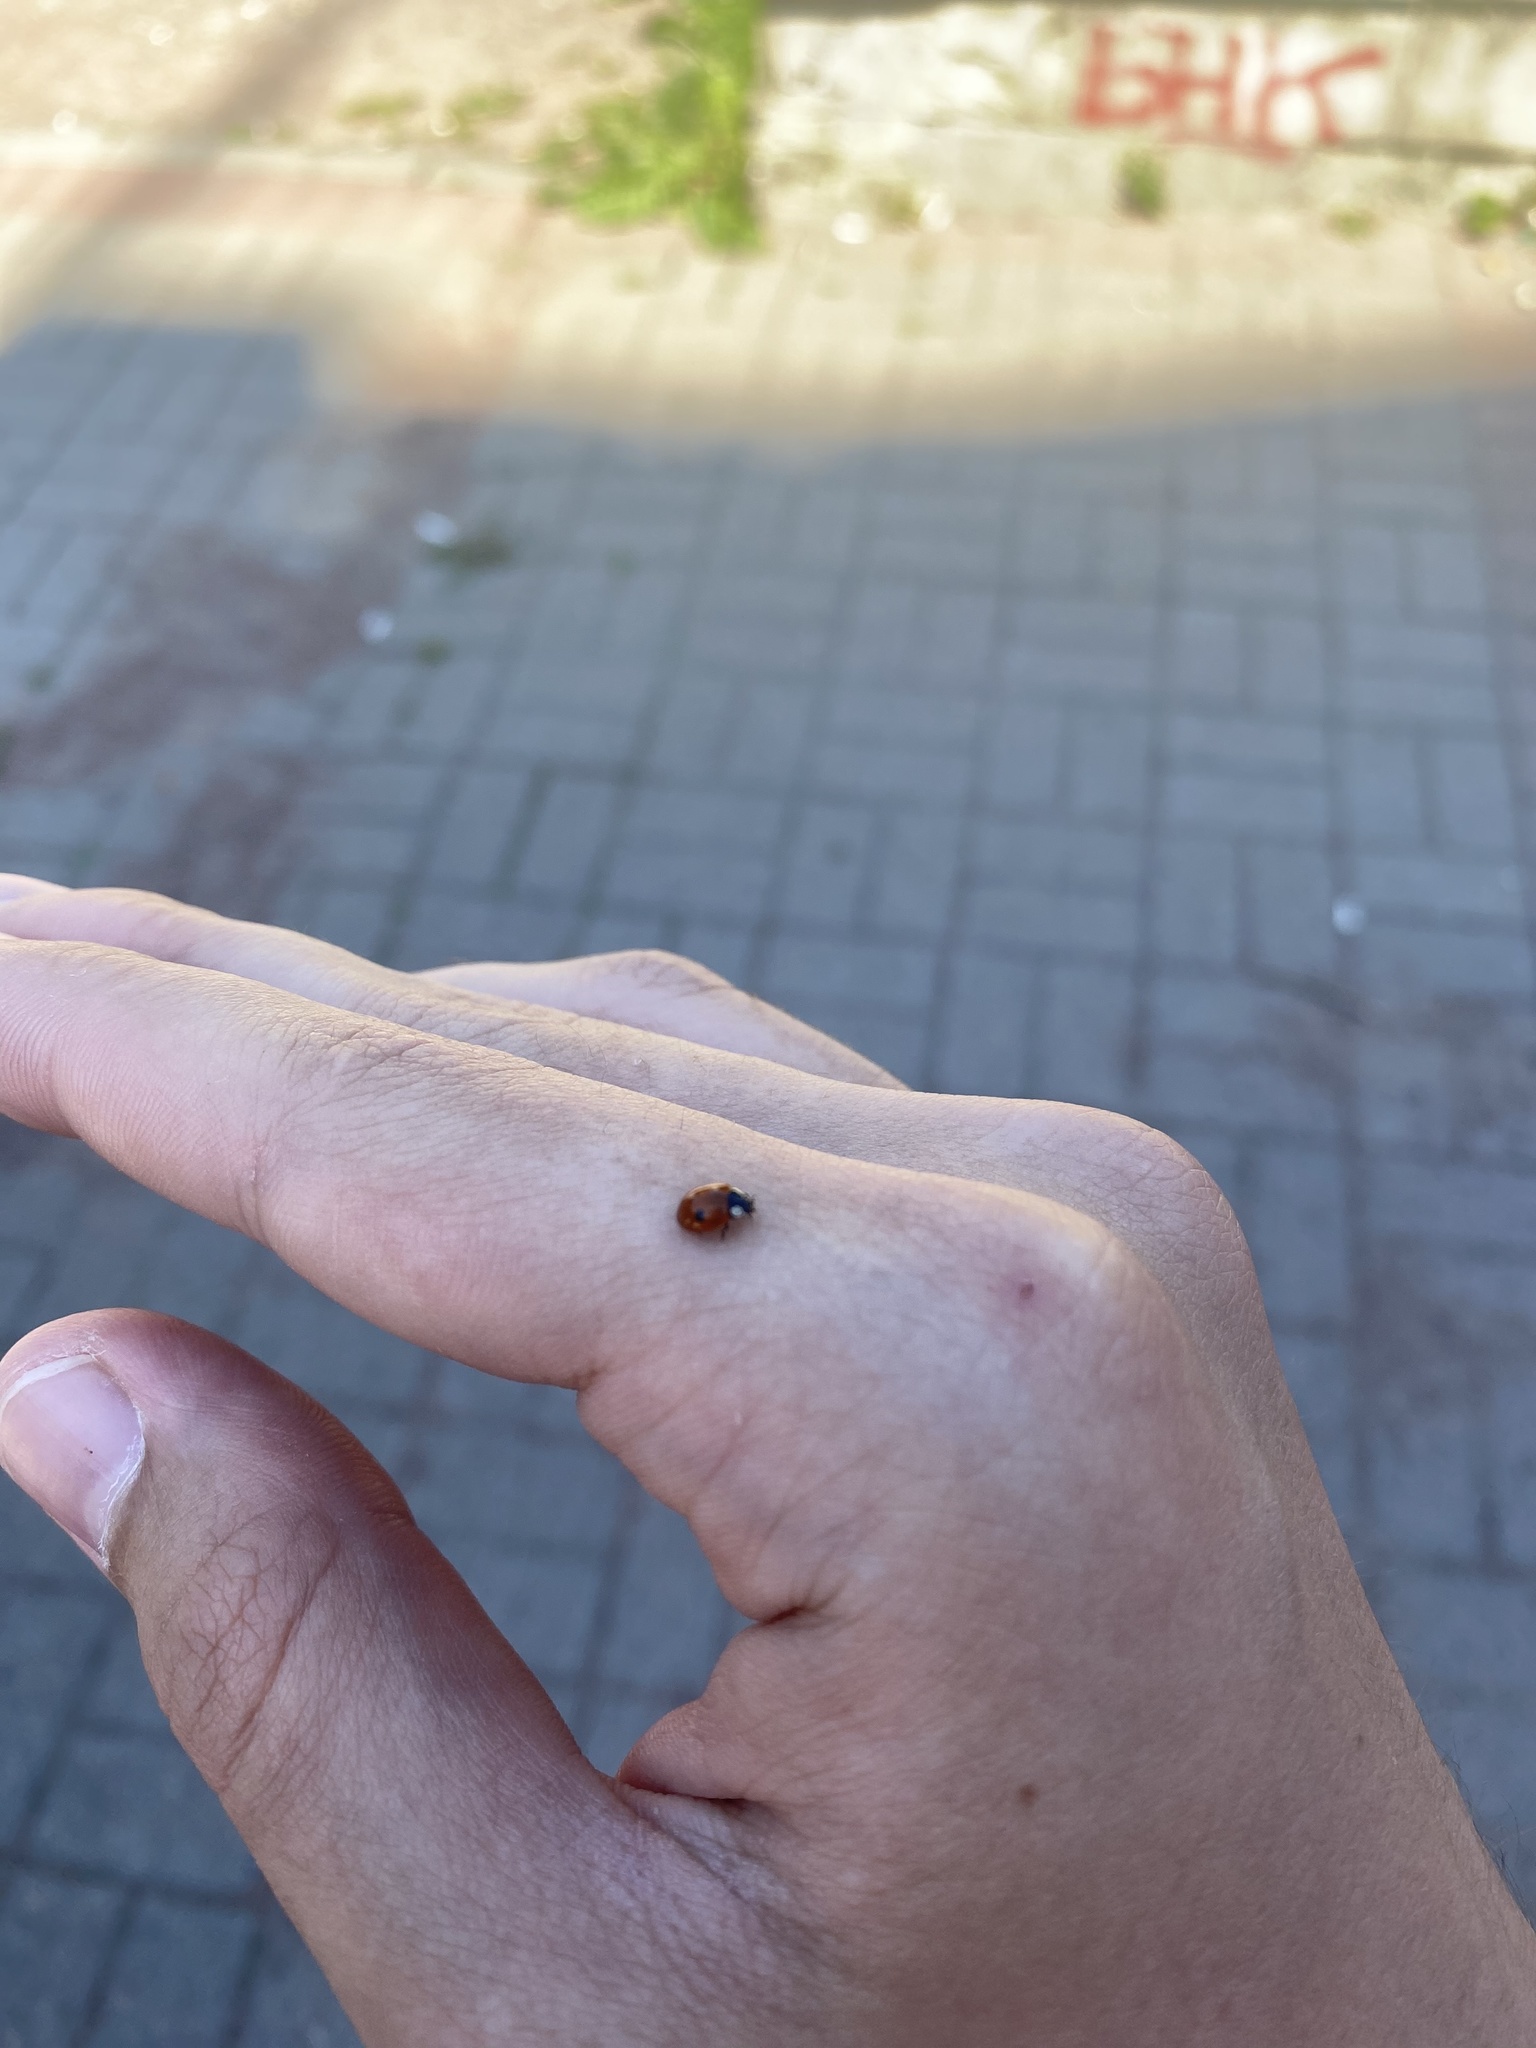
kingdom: Animalia
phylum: Arthropoda
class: Insecta
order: Coleoptera
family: Coccinellidae
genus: Adalia
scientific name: Adalia bipunctata
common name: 2-spot ladybird
